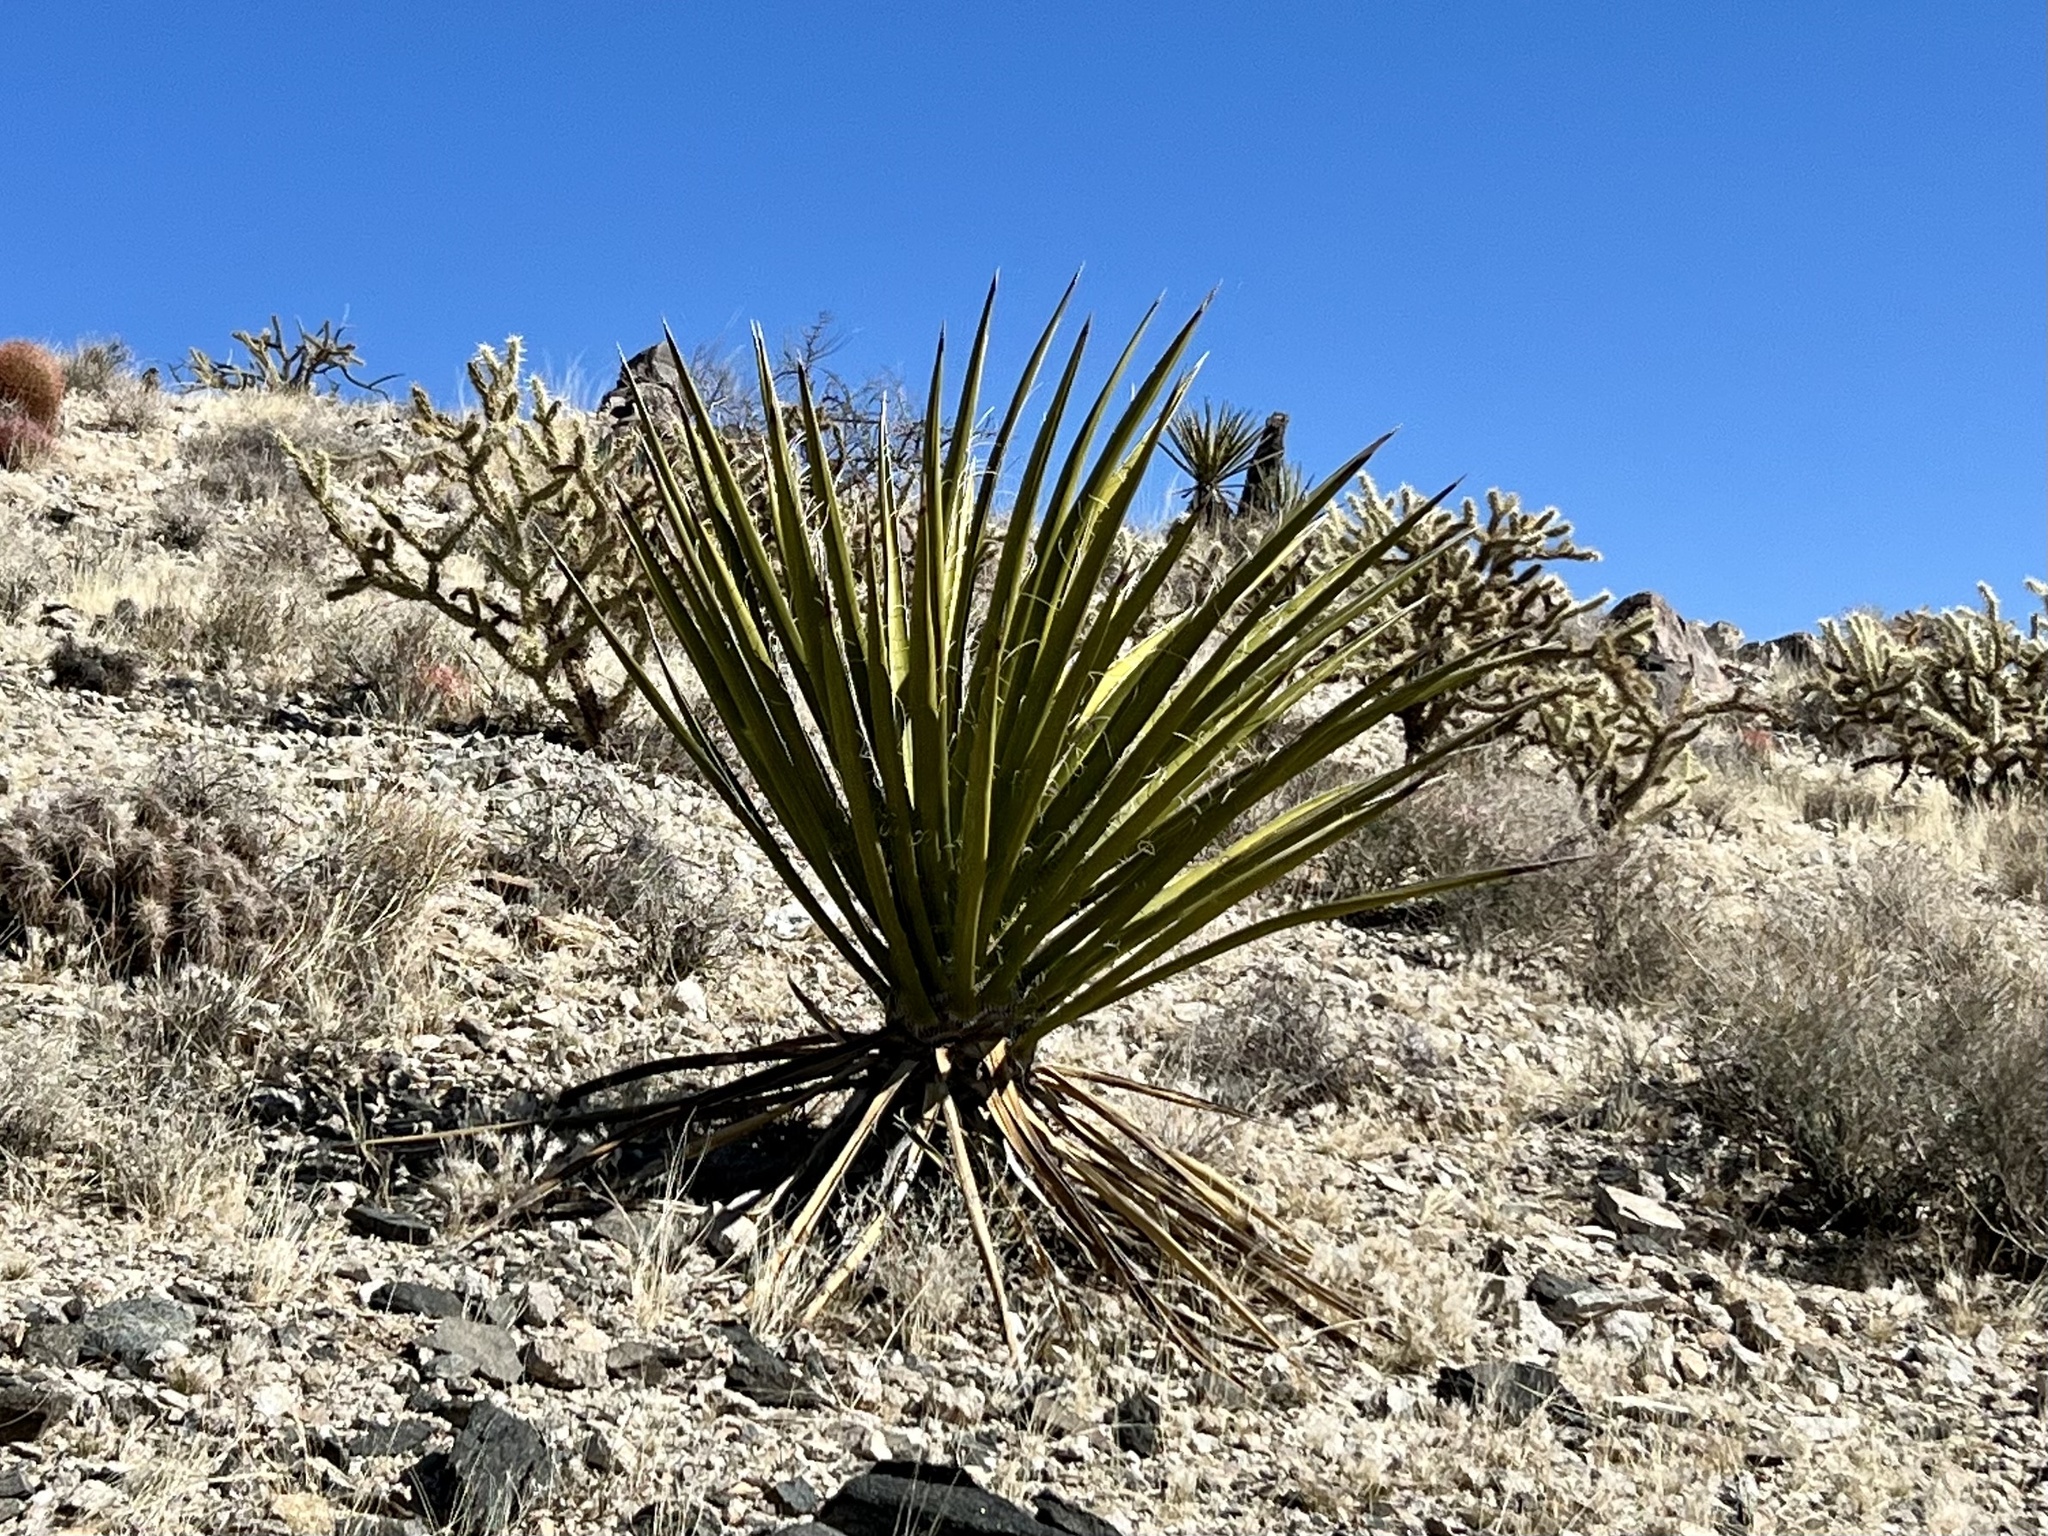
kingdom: Plantae
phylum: Tracheophyta
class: Liliopsida
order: Asparagales
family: Asparagaceae
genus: Yucca
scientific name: Yucca schidigera
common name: Mojave yucca
